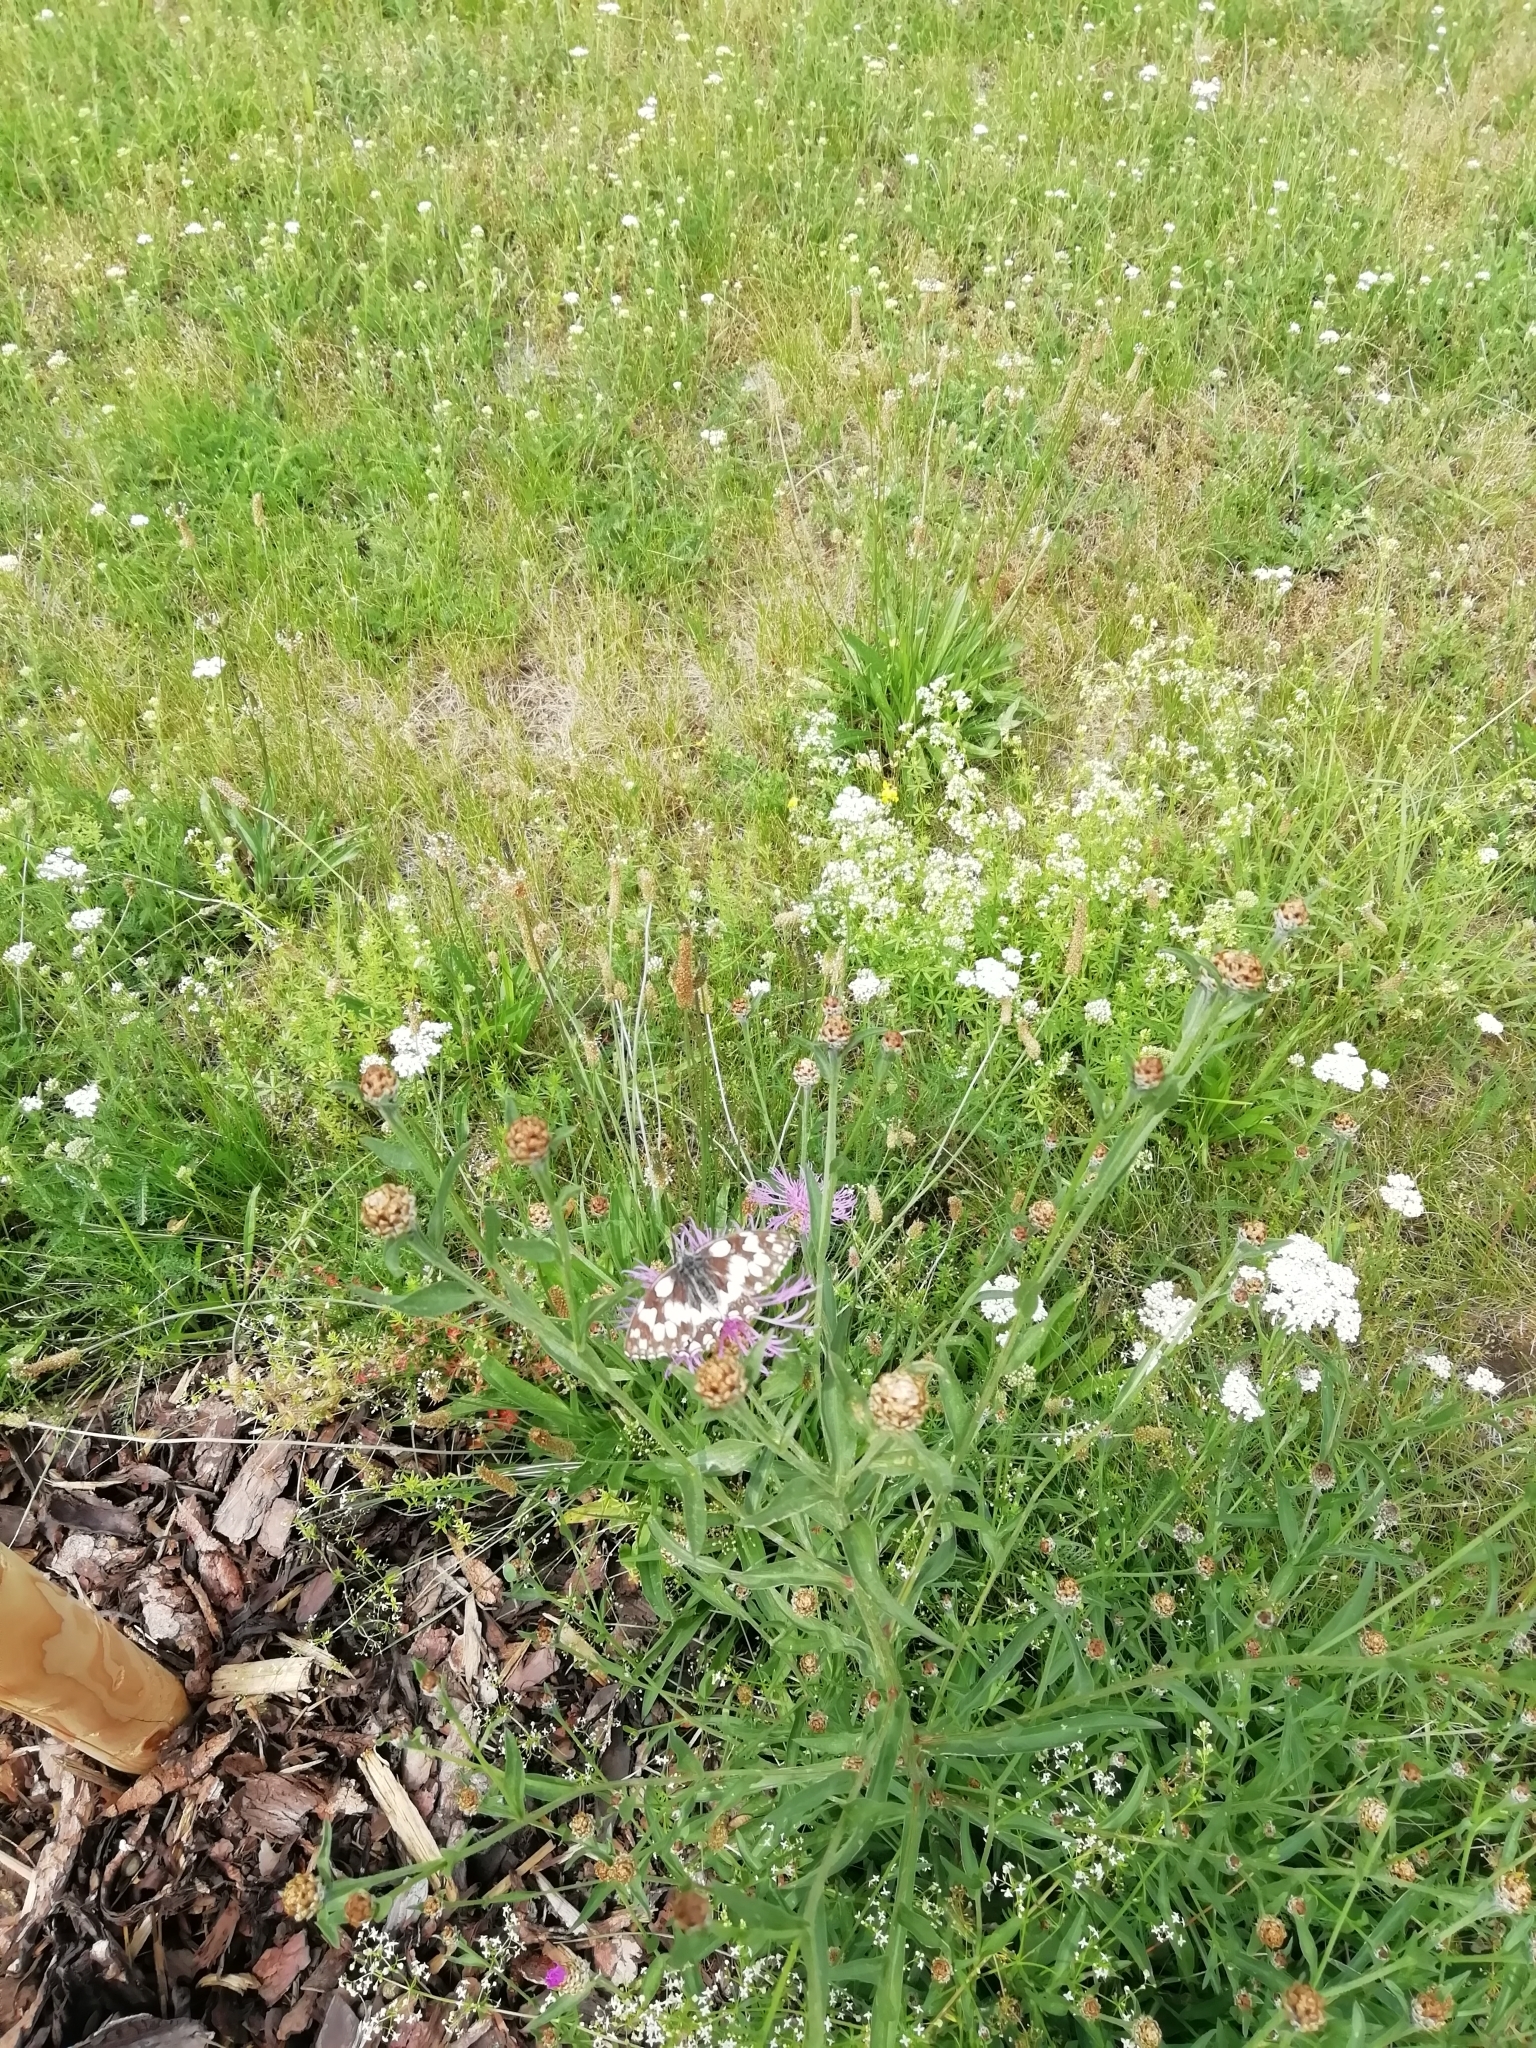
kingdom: Animalia
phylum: Arthropoda
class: Insecta
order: Lepidoptera
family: Nymphalidae
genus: Melanargia
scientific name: Melanargia galathea
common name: Marbled white
